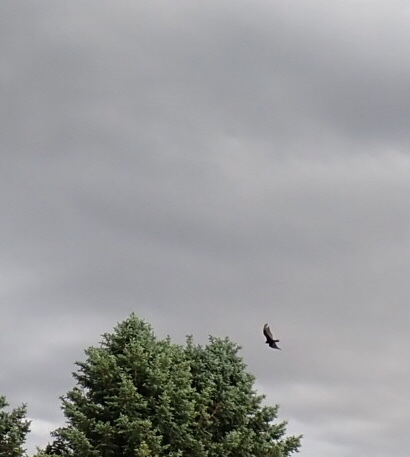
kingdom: Animalia
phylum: Chordata
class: Aves
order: Accipitriformes
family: Cathartidae
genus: Cathartes
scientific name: Cathartes aura
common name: Turkey vulture
